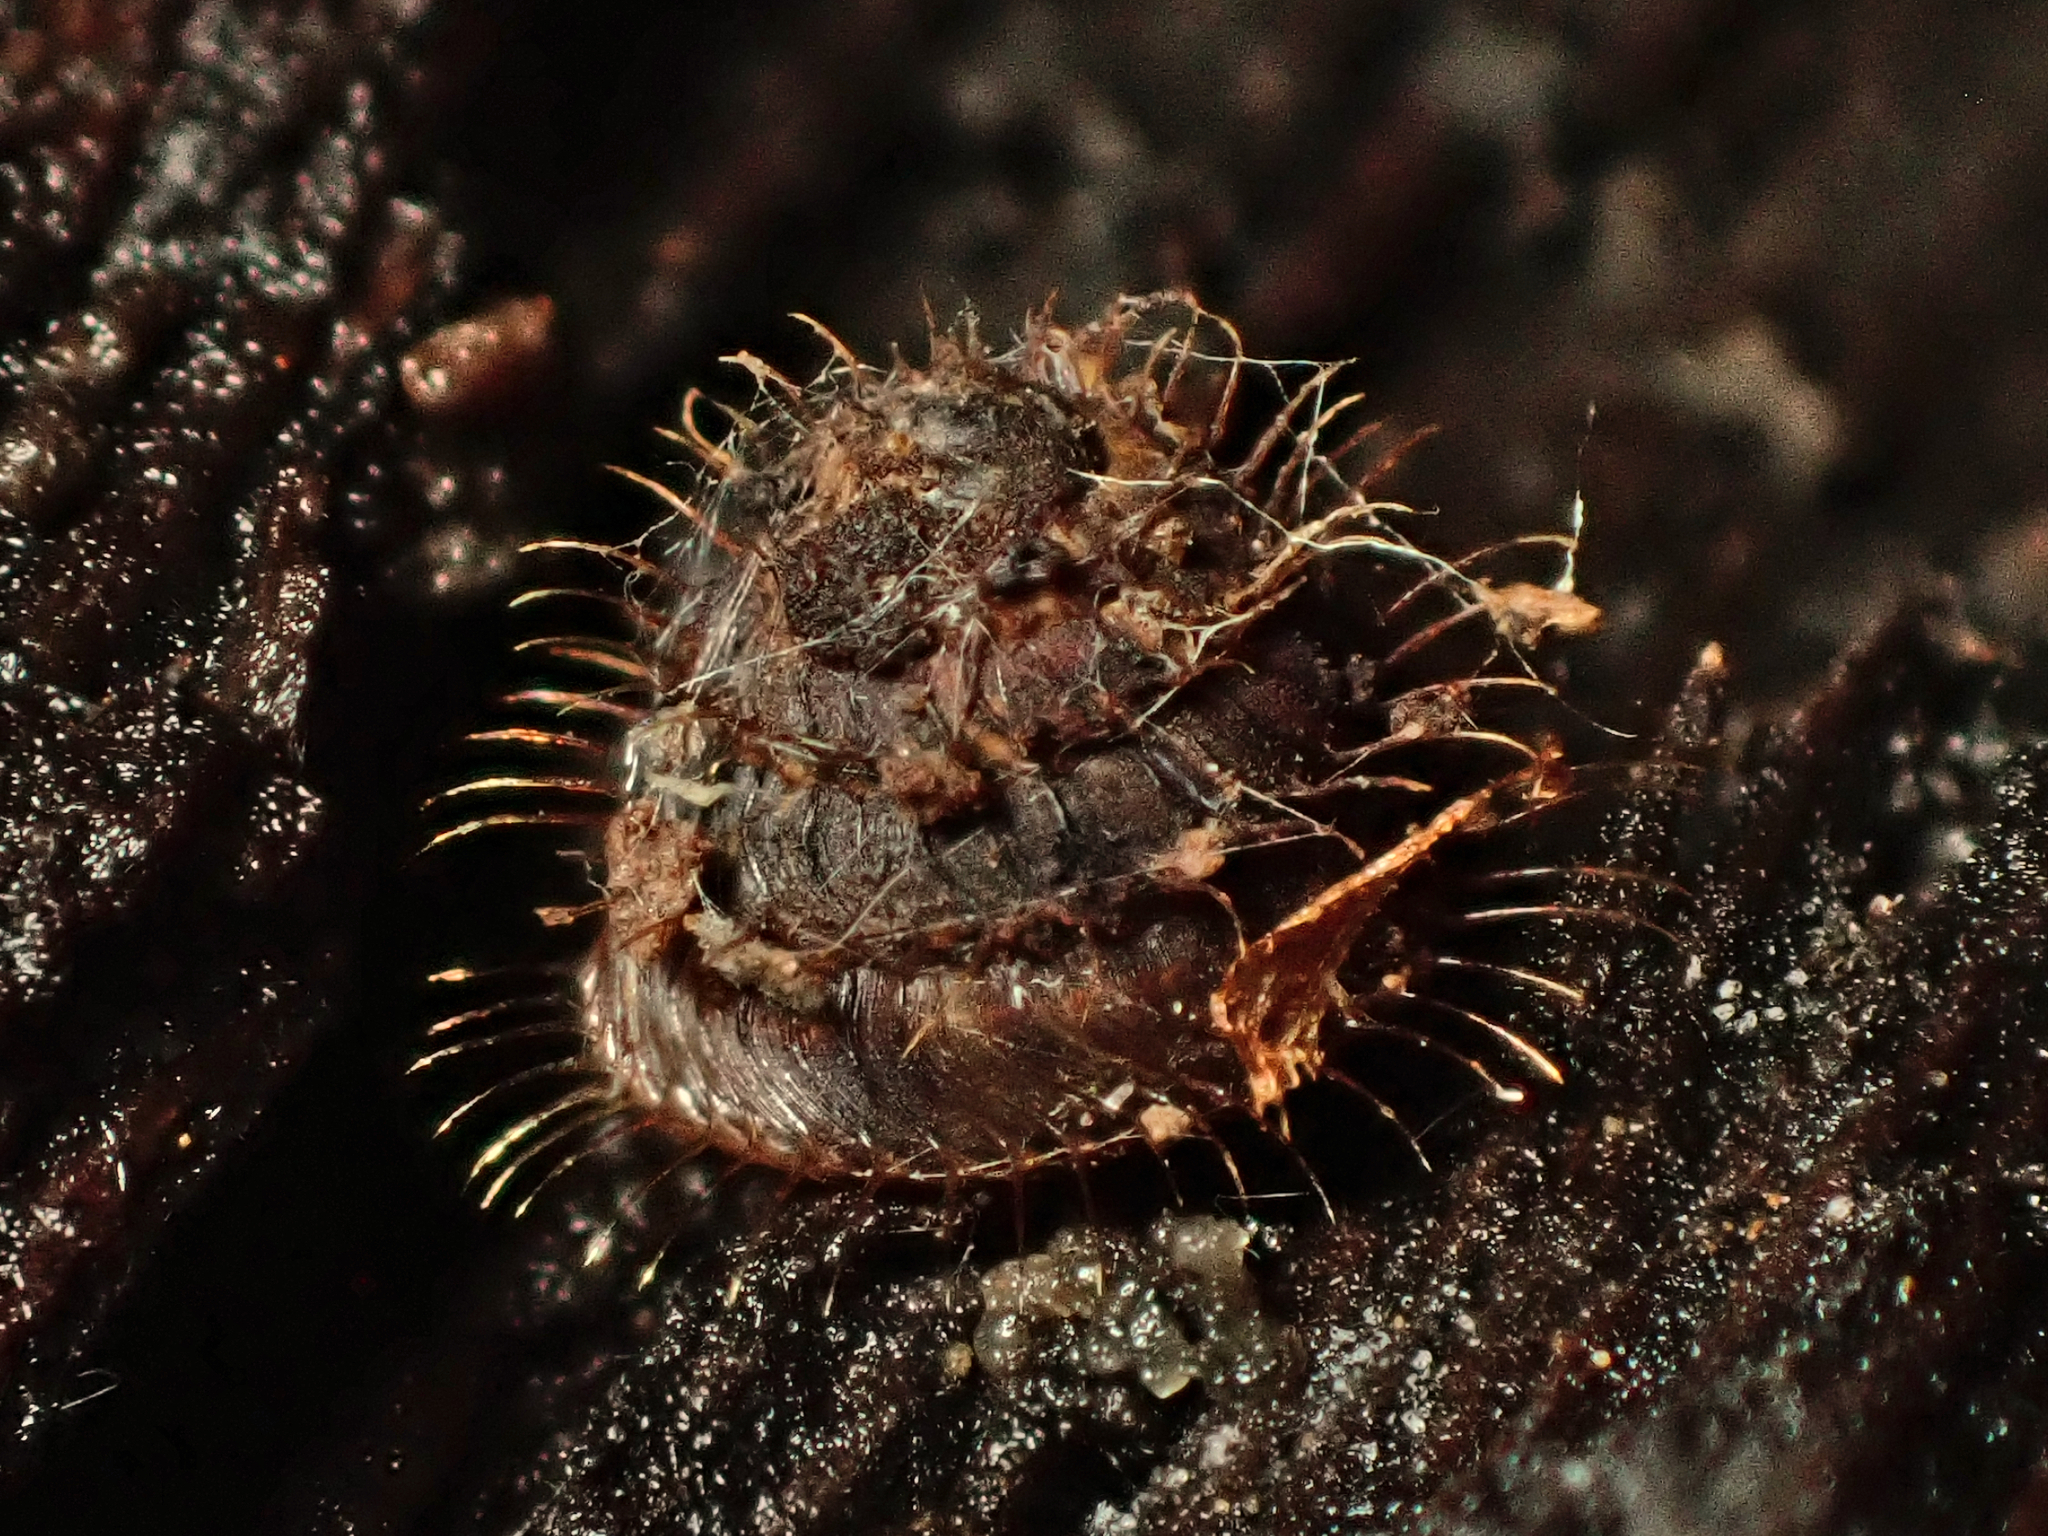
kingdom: Animalia
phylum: Mollusca
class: Gastropoda
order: Stylommatophora
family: Charopidae
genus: Aeschrodomus
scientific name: Aeschrodomus stipulata
